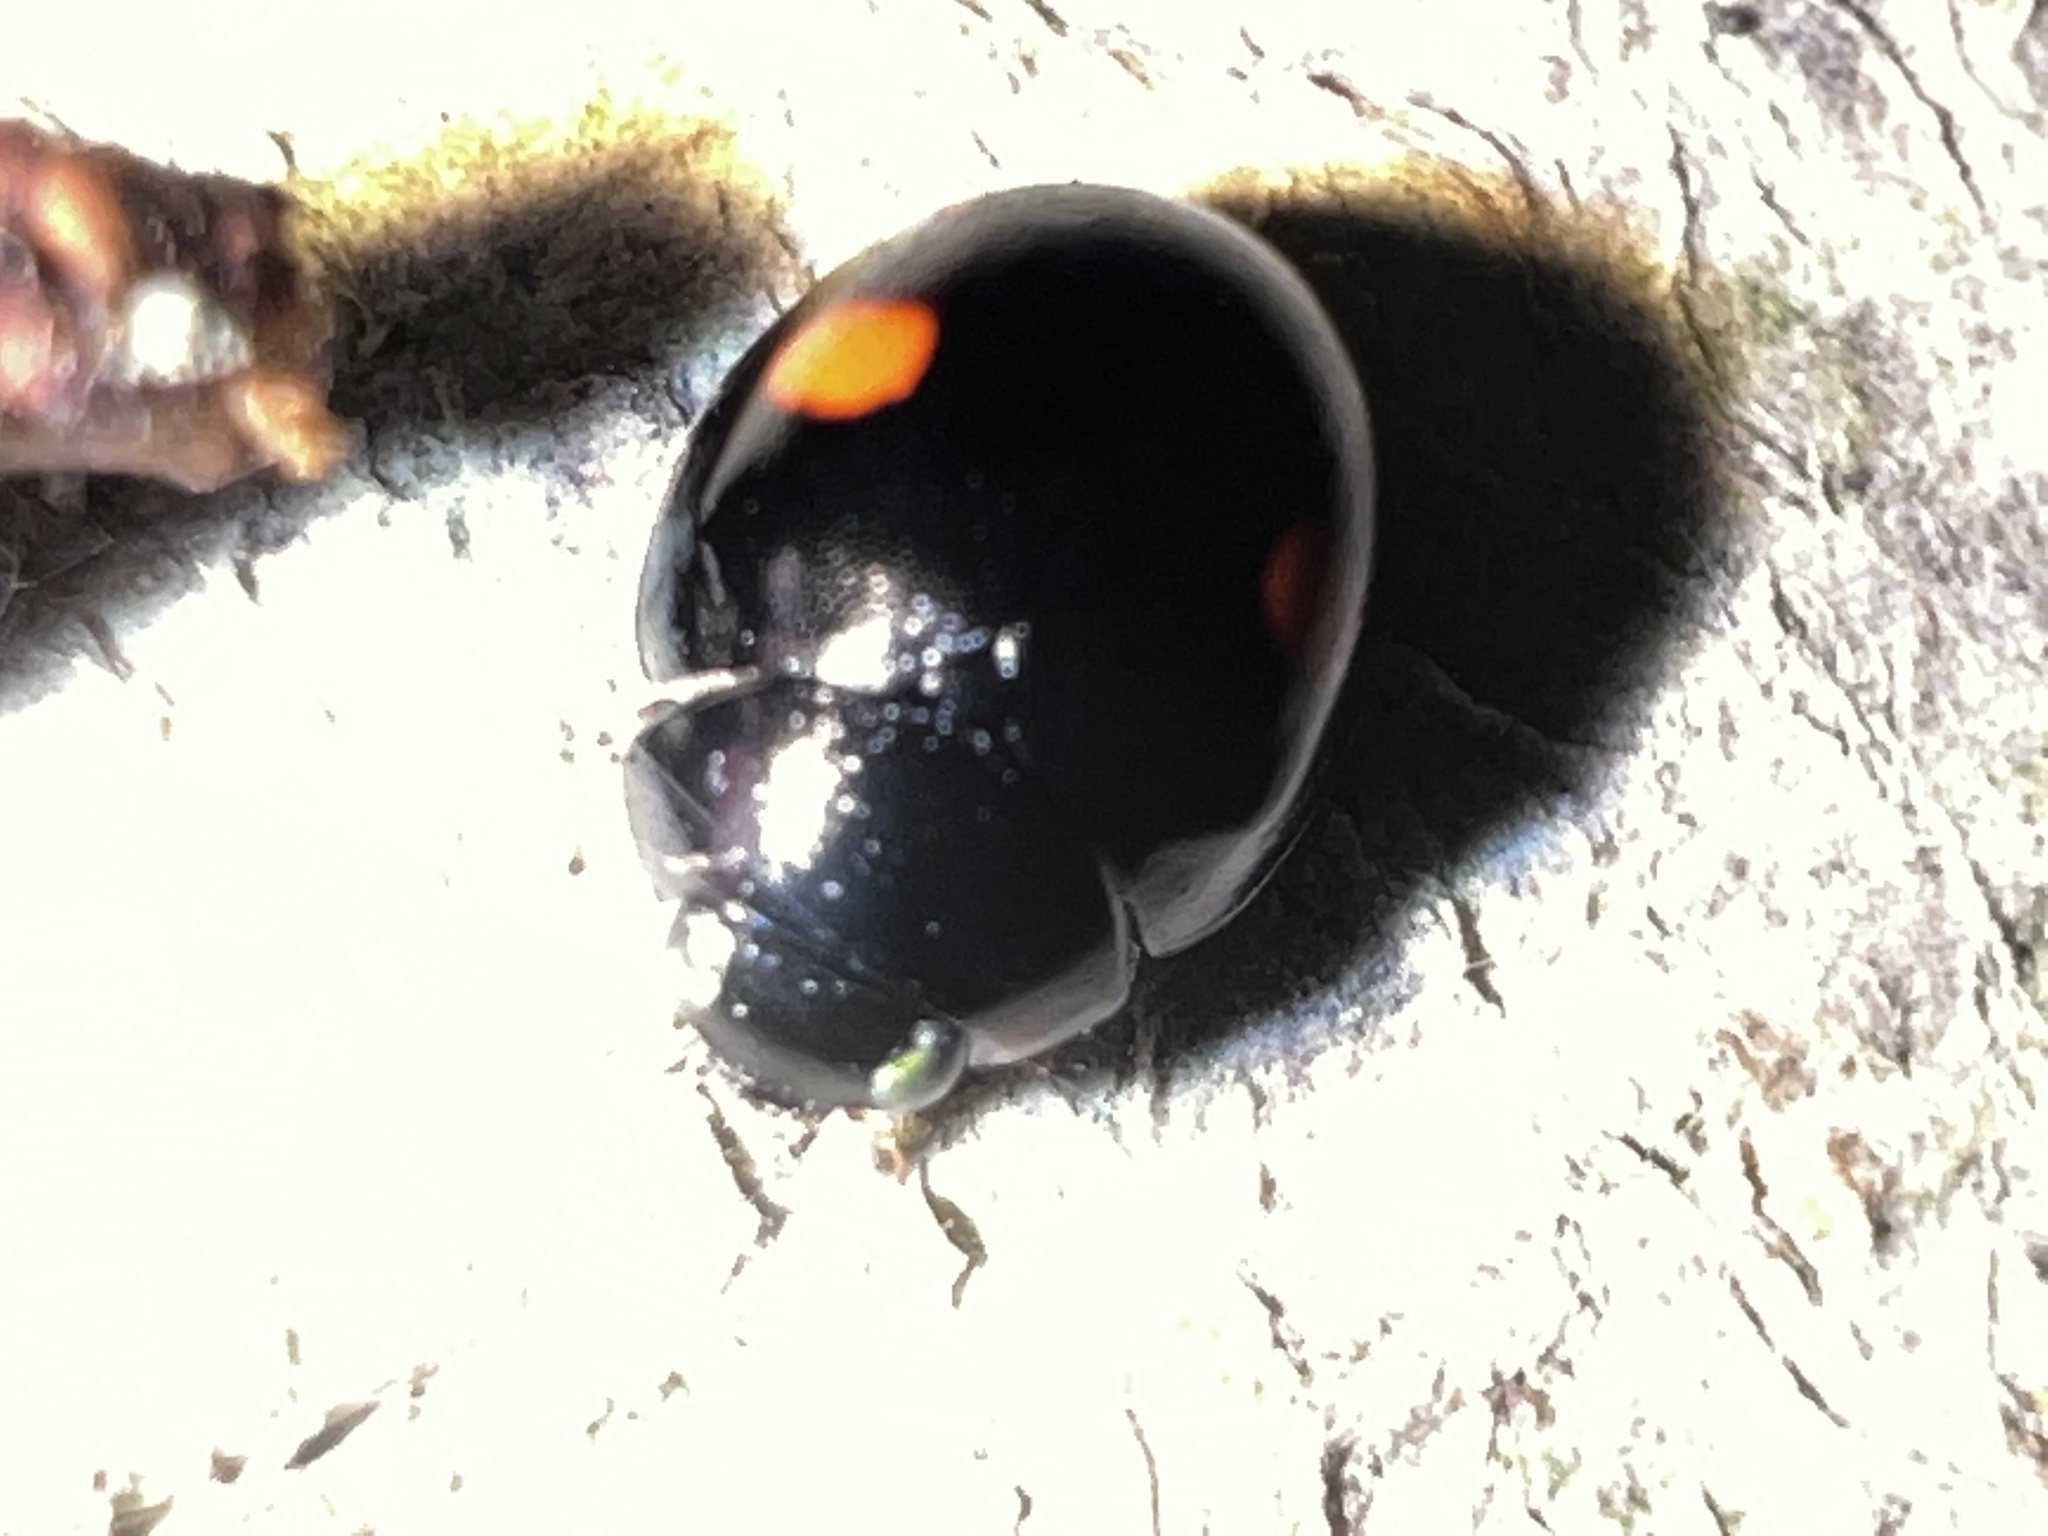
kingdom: Animalia
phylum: Arthropoda
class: Insecta
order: Coleoptera
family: Coccinellidae
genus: Chilocorus
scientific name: Chilocorus stigma
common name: Twicestabbed lady beetle
